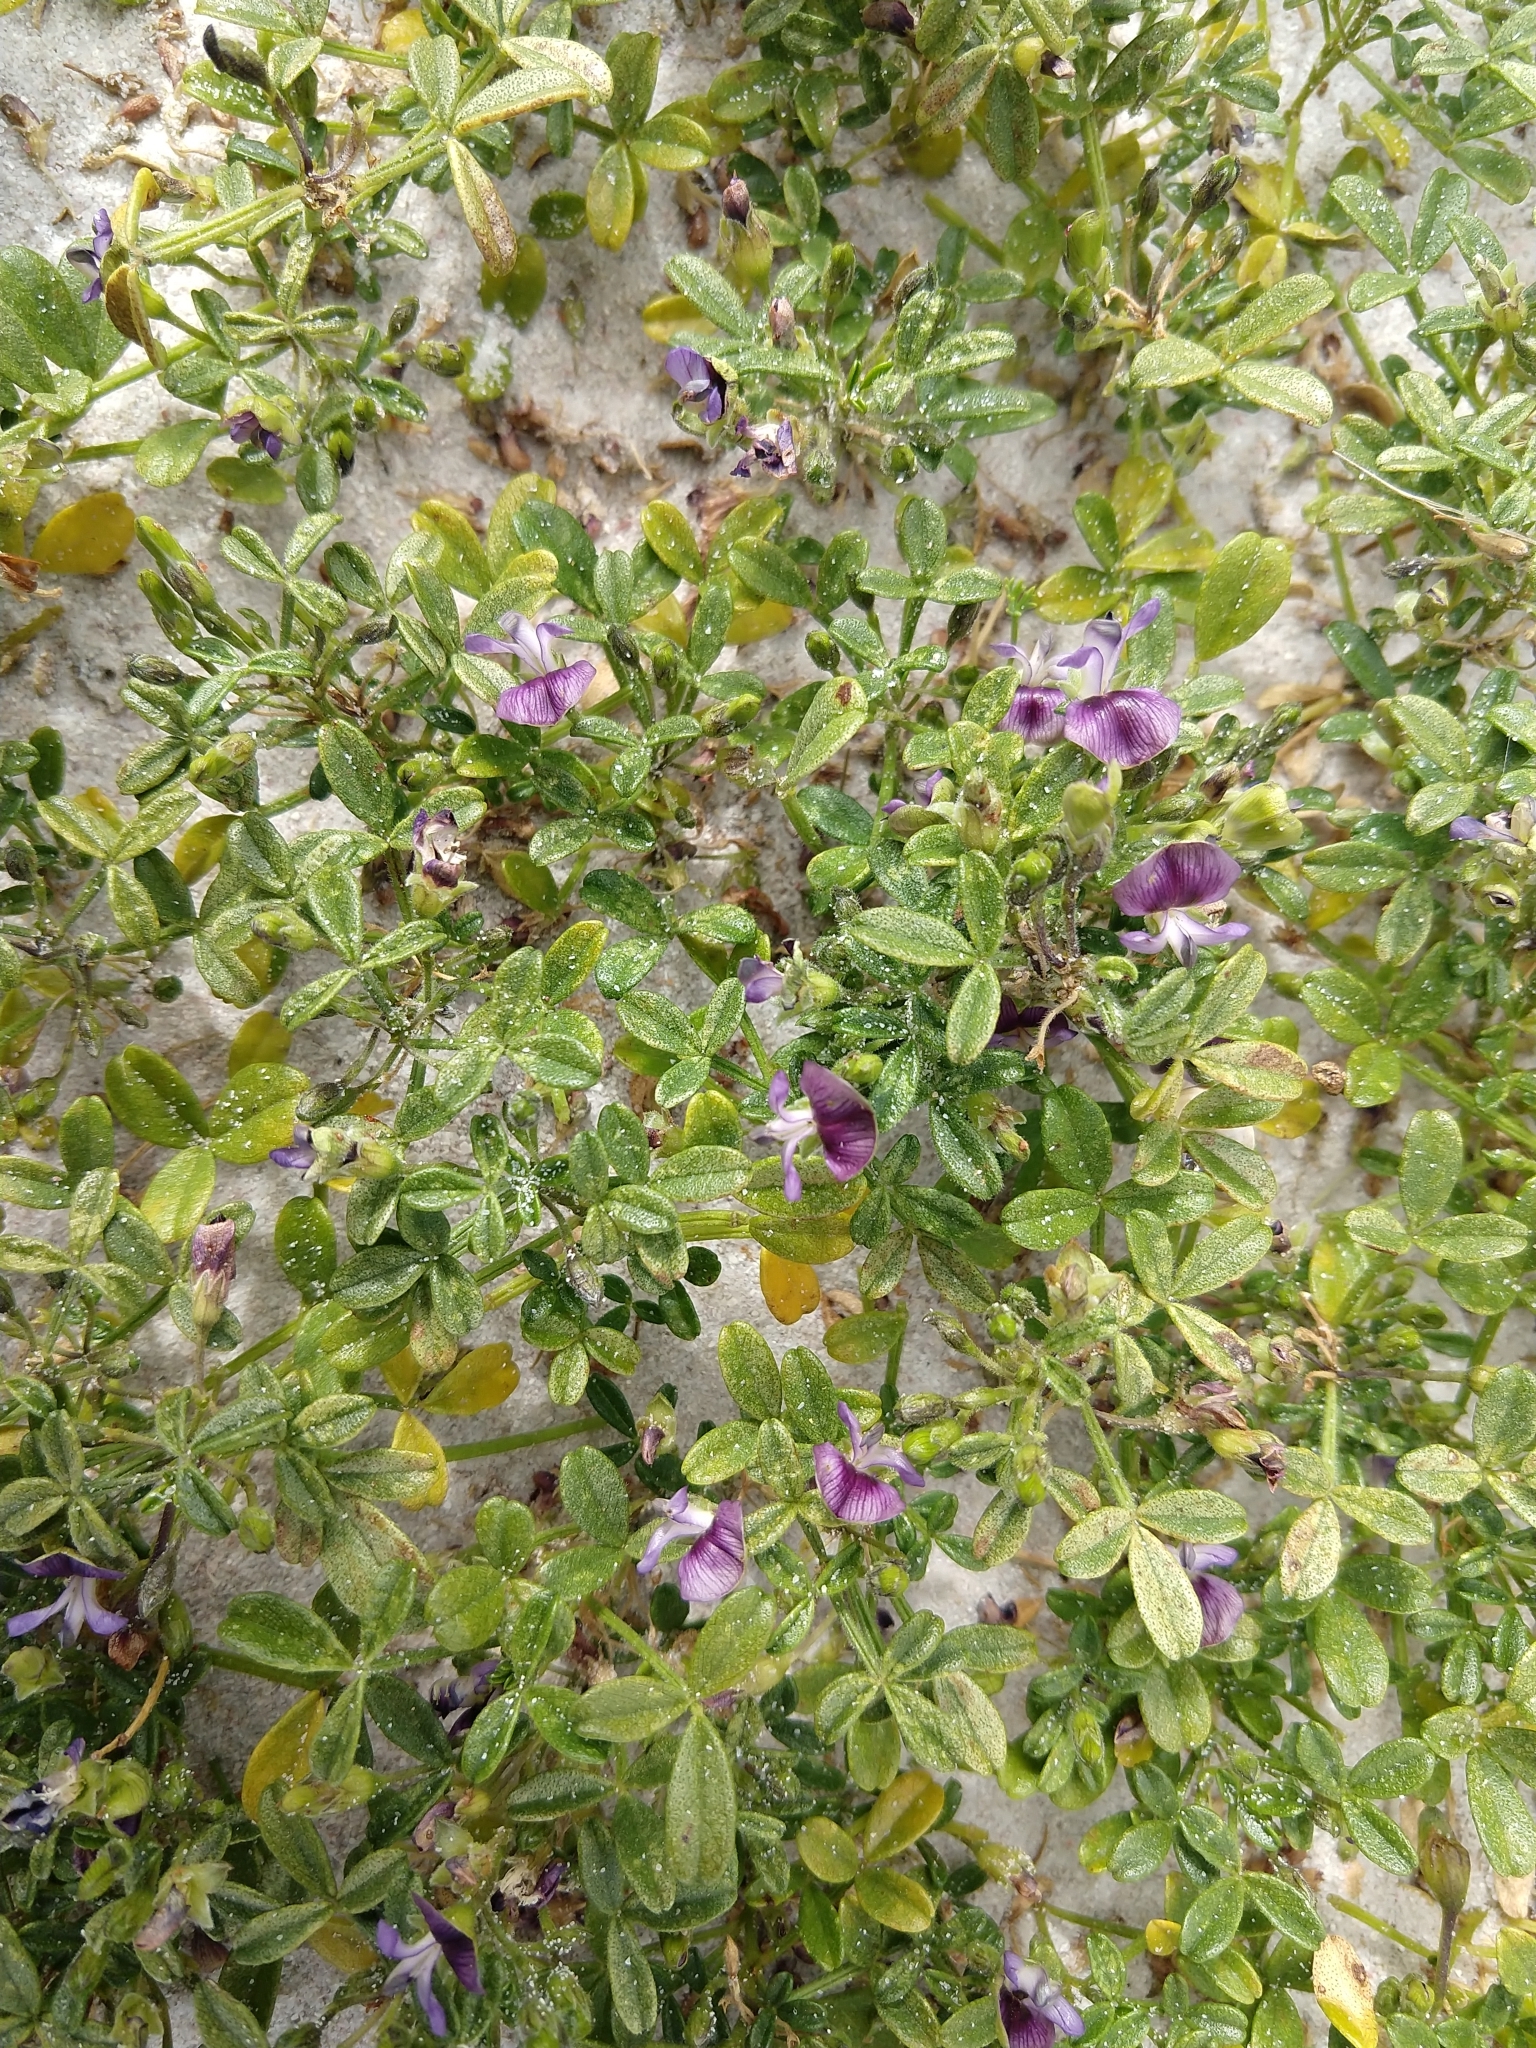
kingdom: Plantae
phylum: Tracheophyta
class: Magnoliopsida
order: Fabales
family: Fabaceae
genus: Psoralea
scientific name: Psoralea repens
